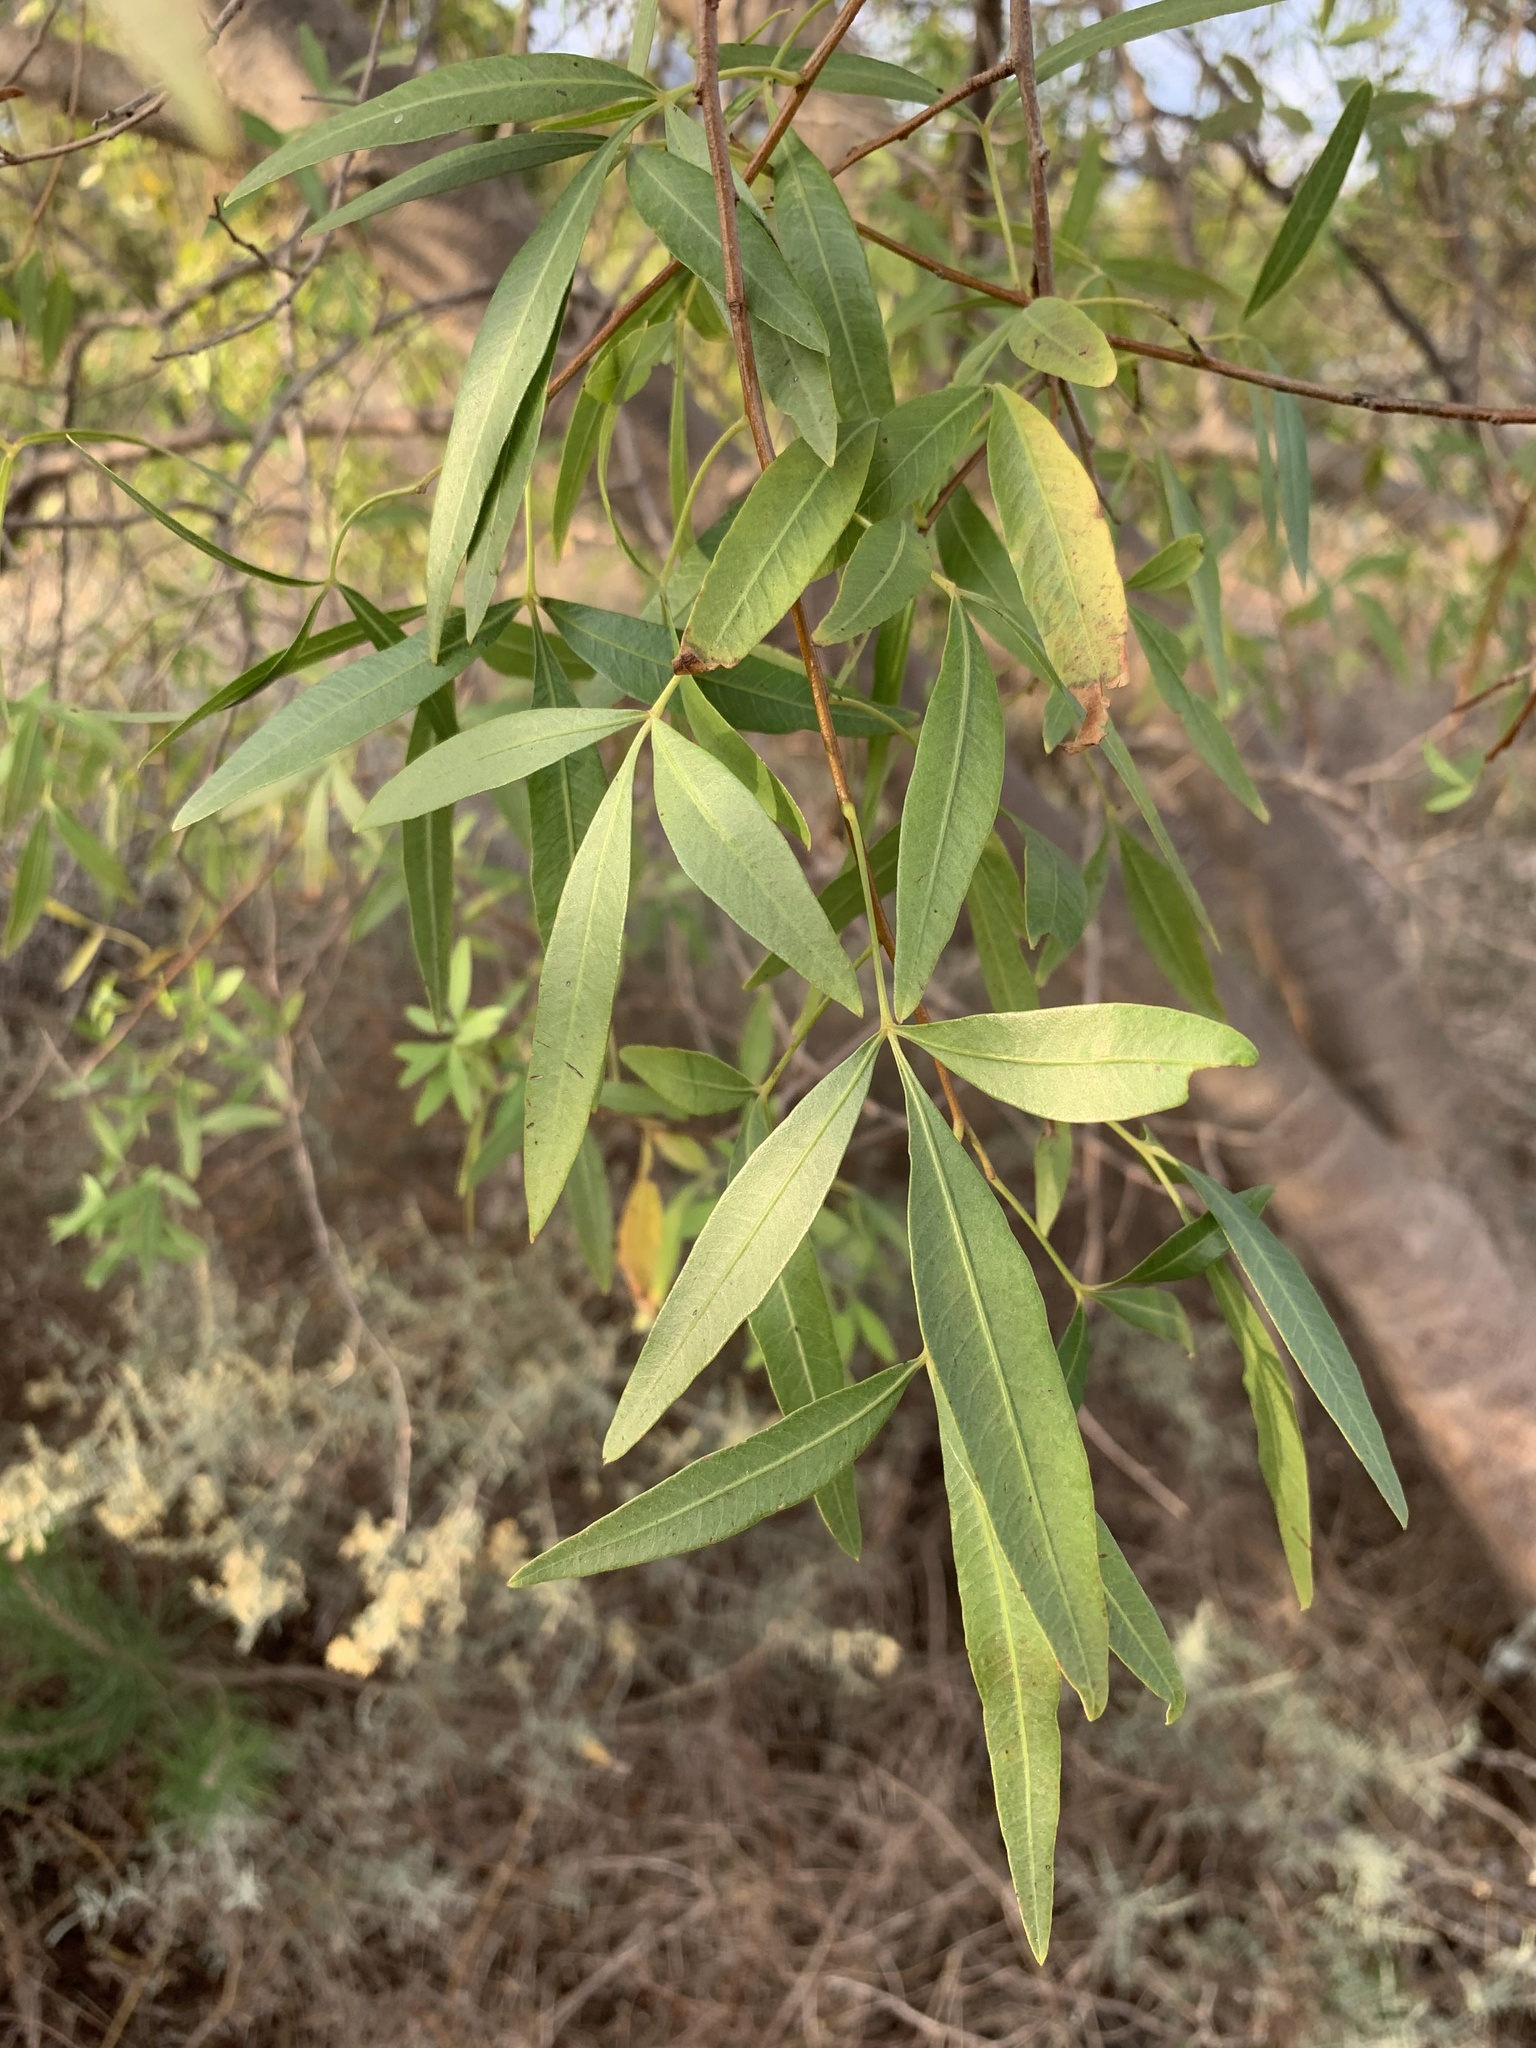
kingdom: Plantae
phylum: Tracheophyta
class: Magnoliopsida
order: Sapindales
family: Anacardiaceae
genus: Searsia
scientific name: Searsia pendulina
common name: White karee
